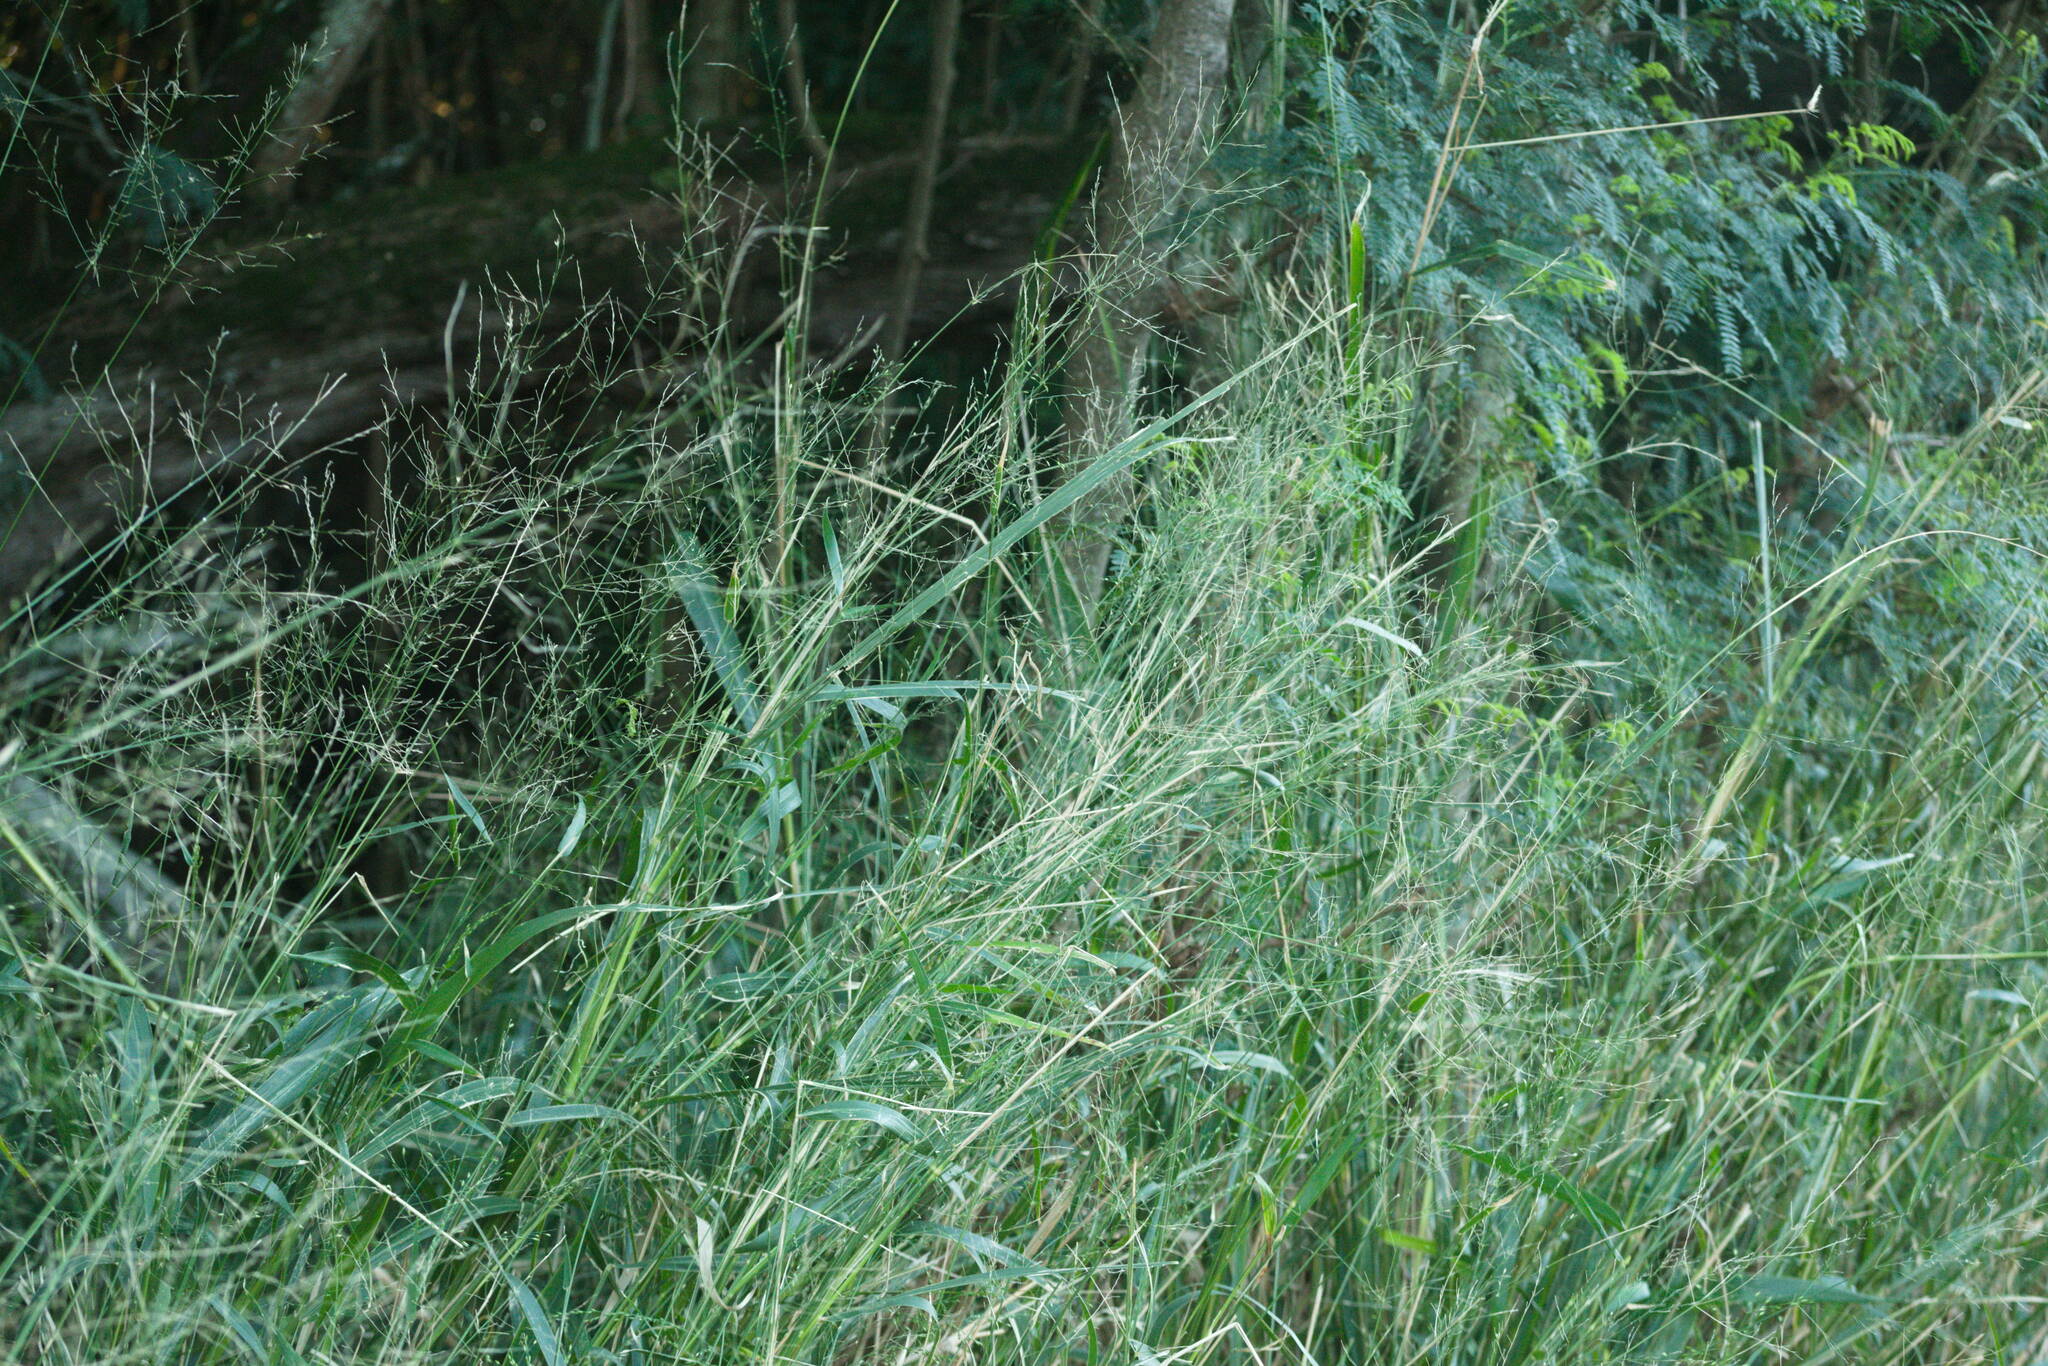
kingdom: Plantae
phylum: Tracheophyta
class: Liliopsida
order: Poales
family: Poaceae
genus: Megathyrsus
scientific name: Megathyrsus maximus
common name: Guineagrass
